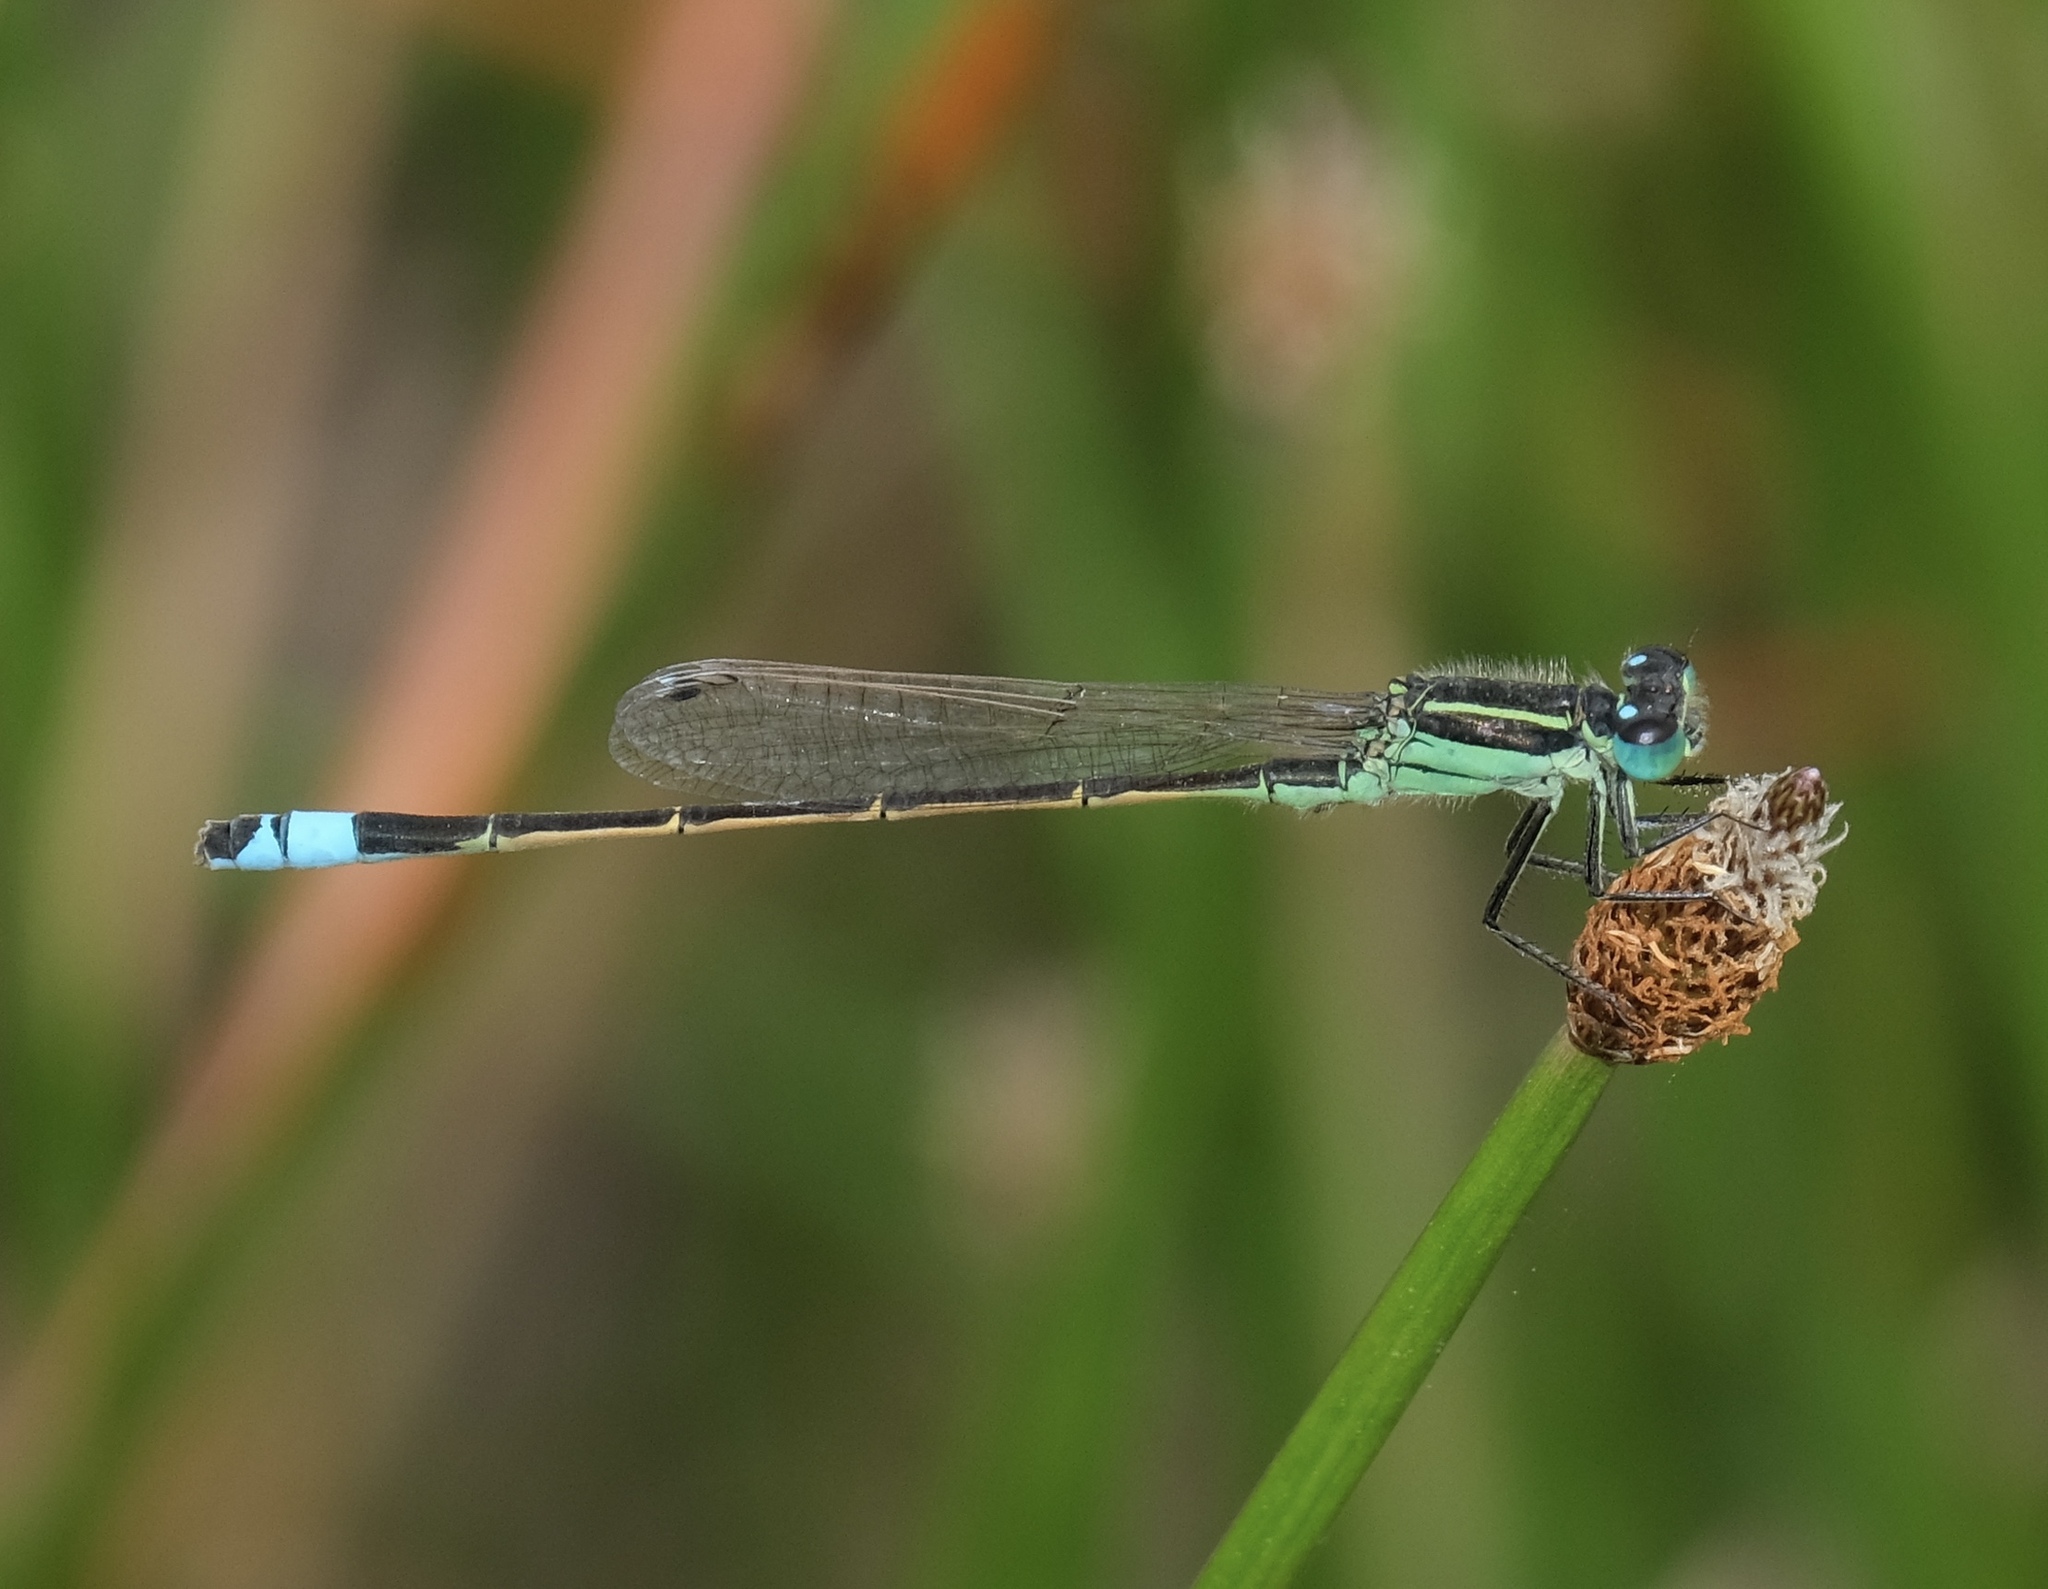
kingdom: Animalia
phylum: Arthropoda
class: Insecta
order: Odonata
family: Coenagrionidae
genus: Ischnura
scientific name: Ischnura ramburii
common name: Rambur's forktail
